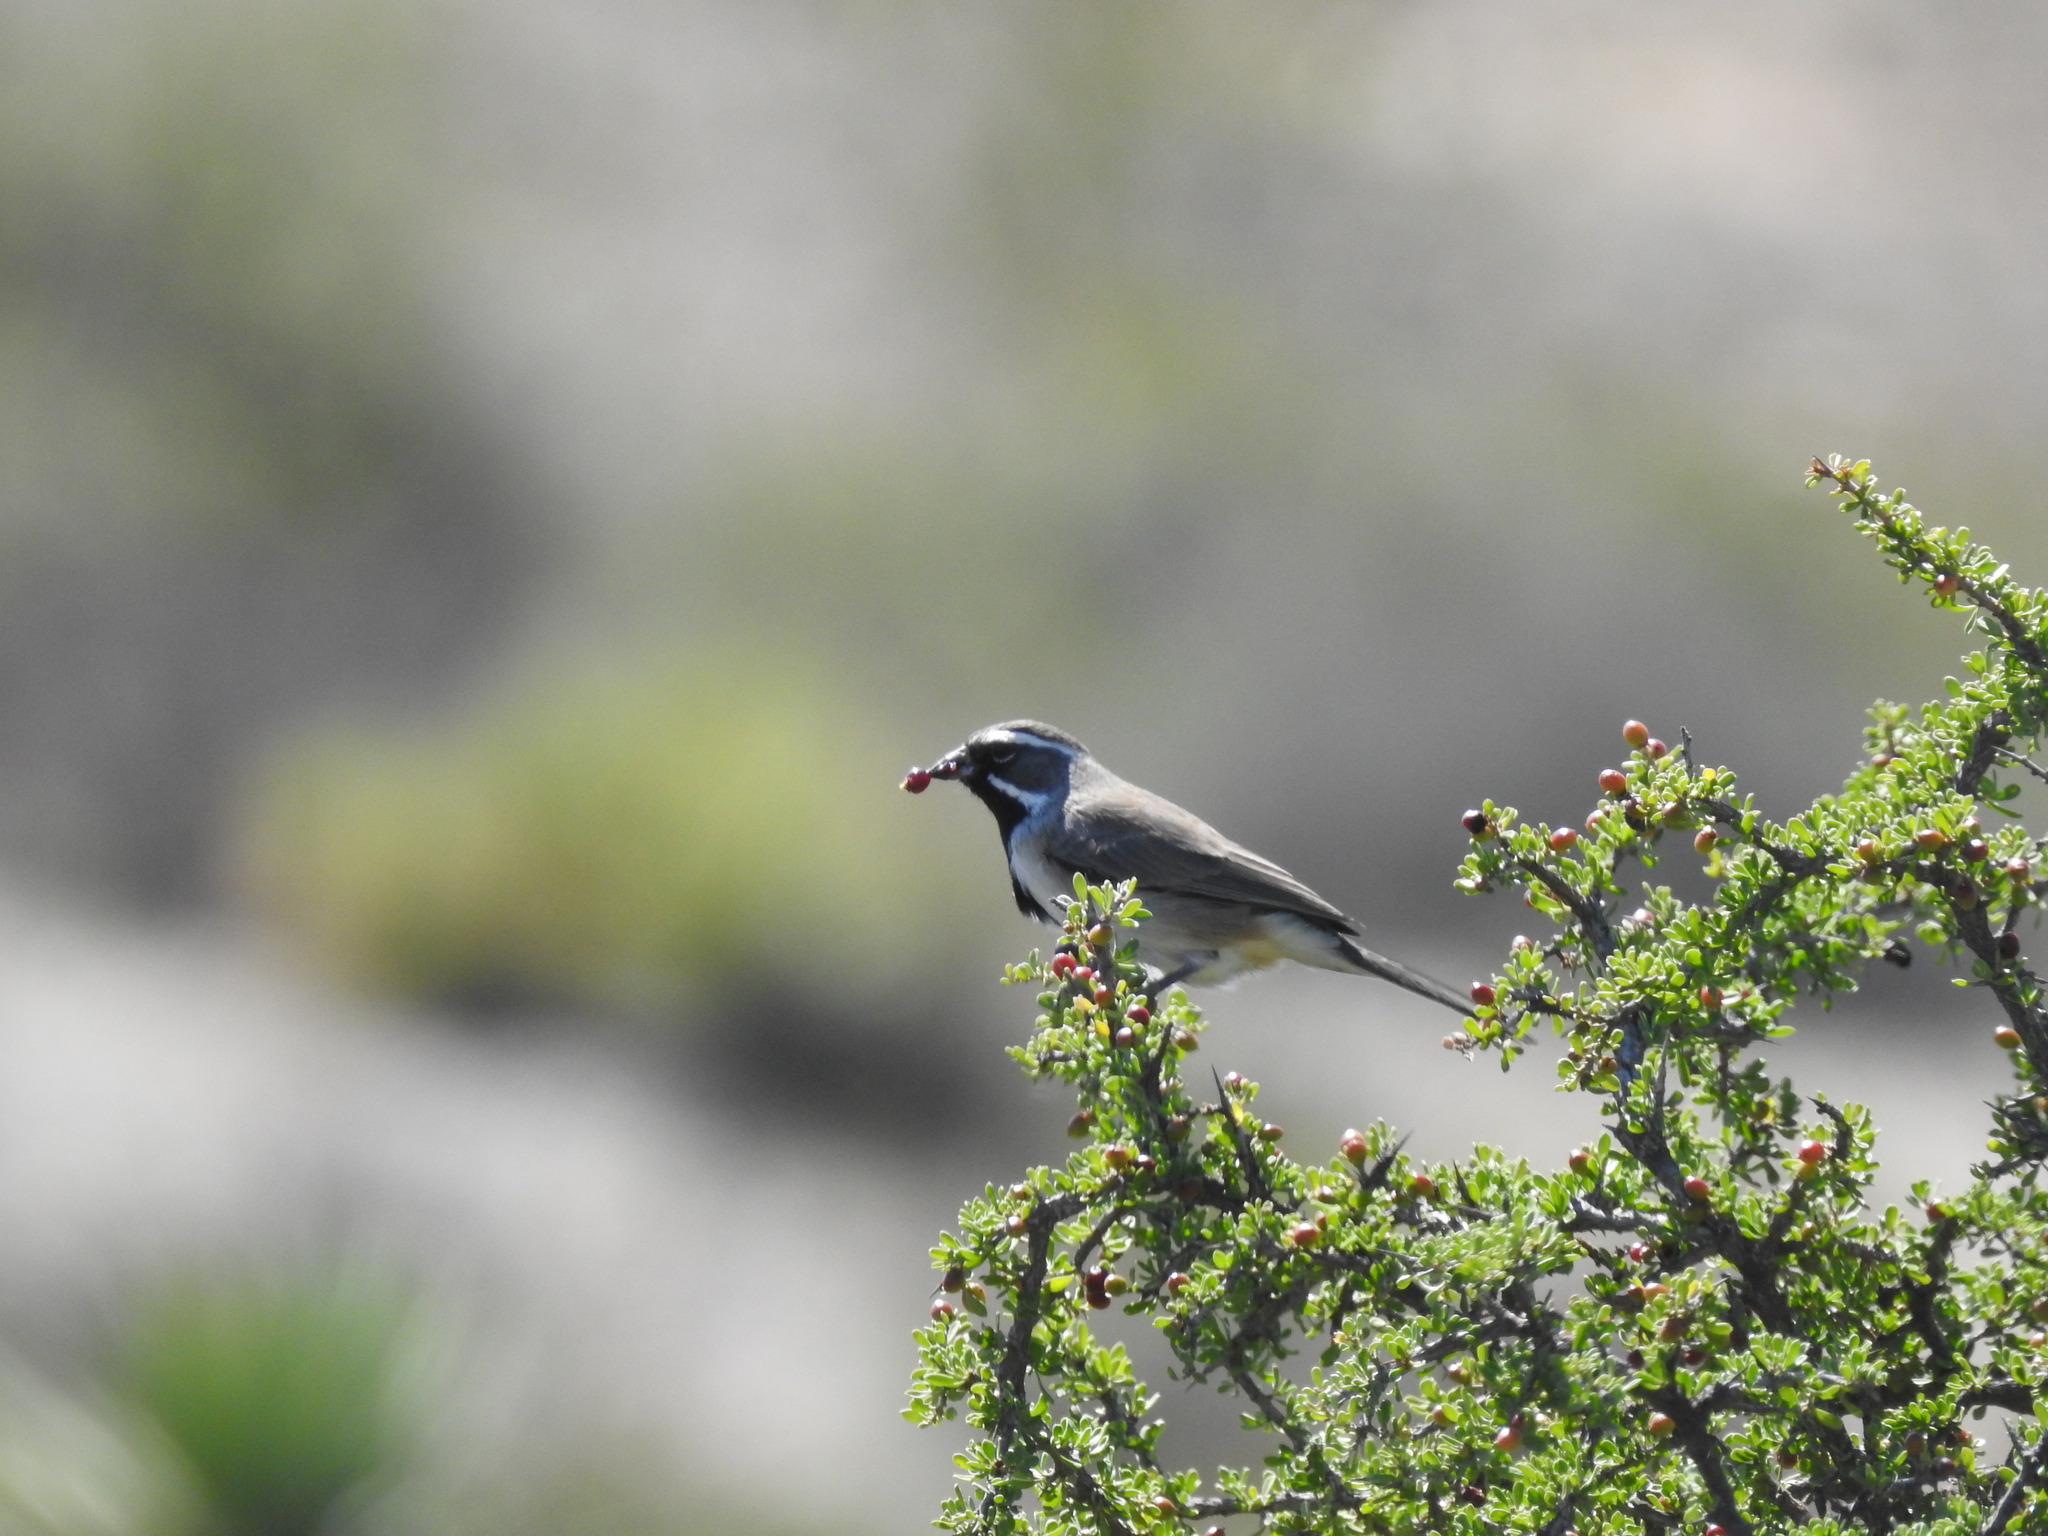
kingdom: Animalia
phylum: Chordata
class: Aves
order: Passeriformes
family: Passerellidae
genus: Amphispiza
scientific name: Amphispiza bilineata
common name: Black-throated sparrow
